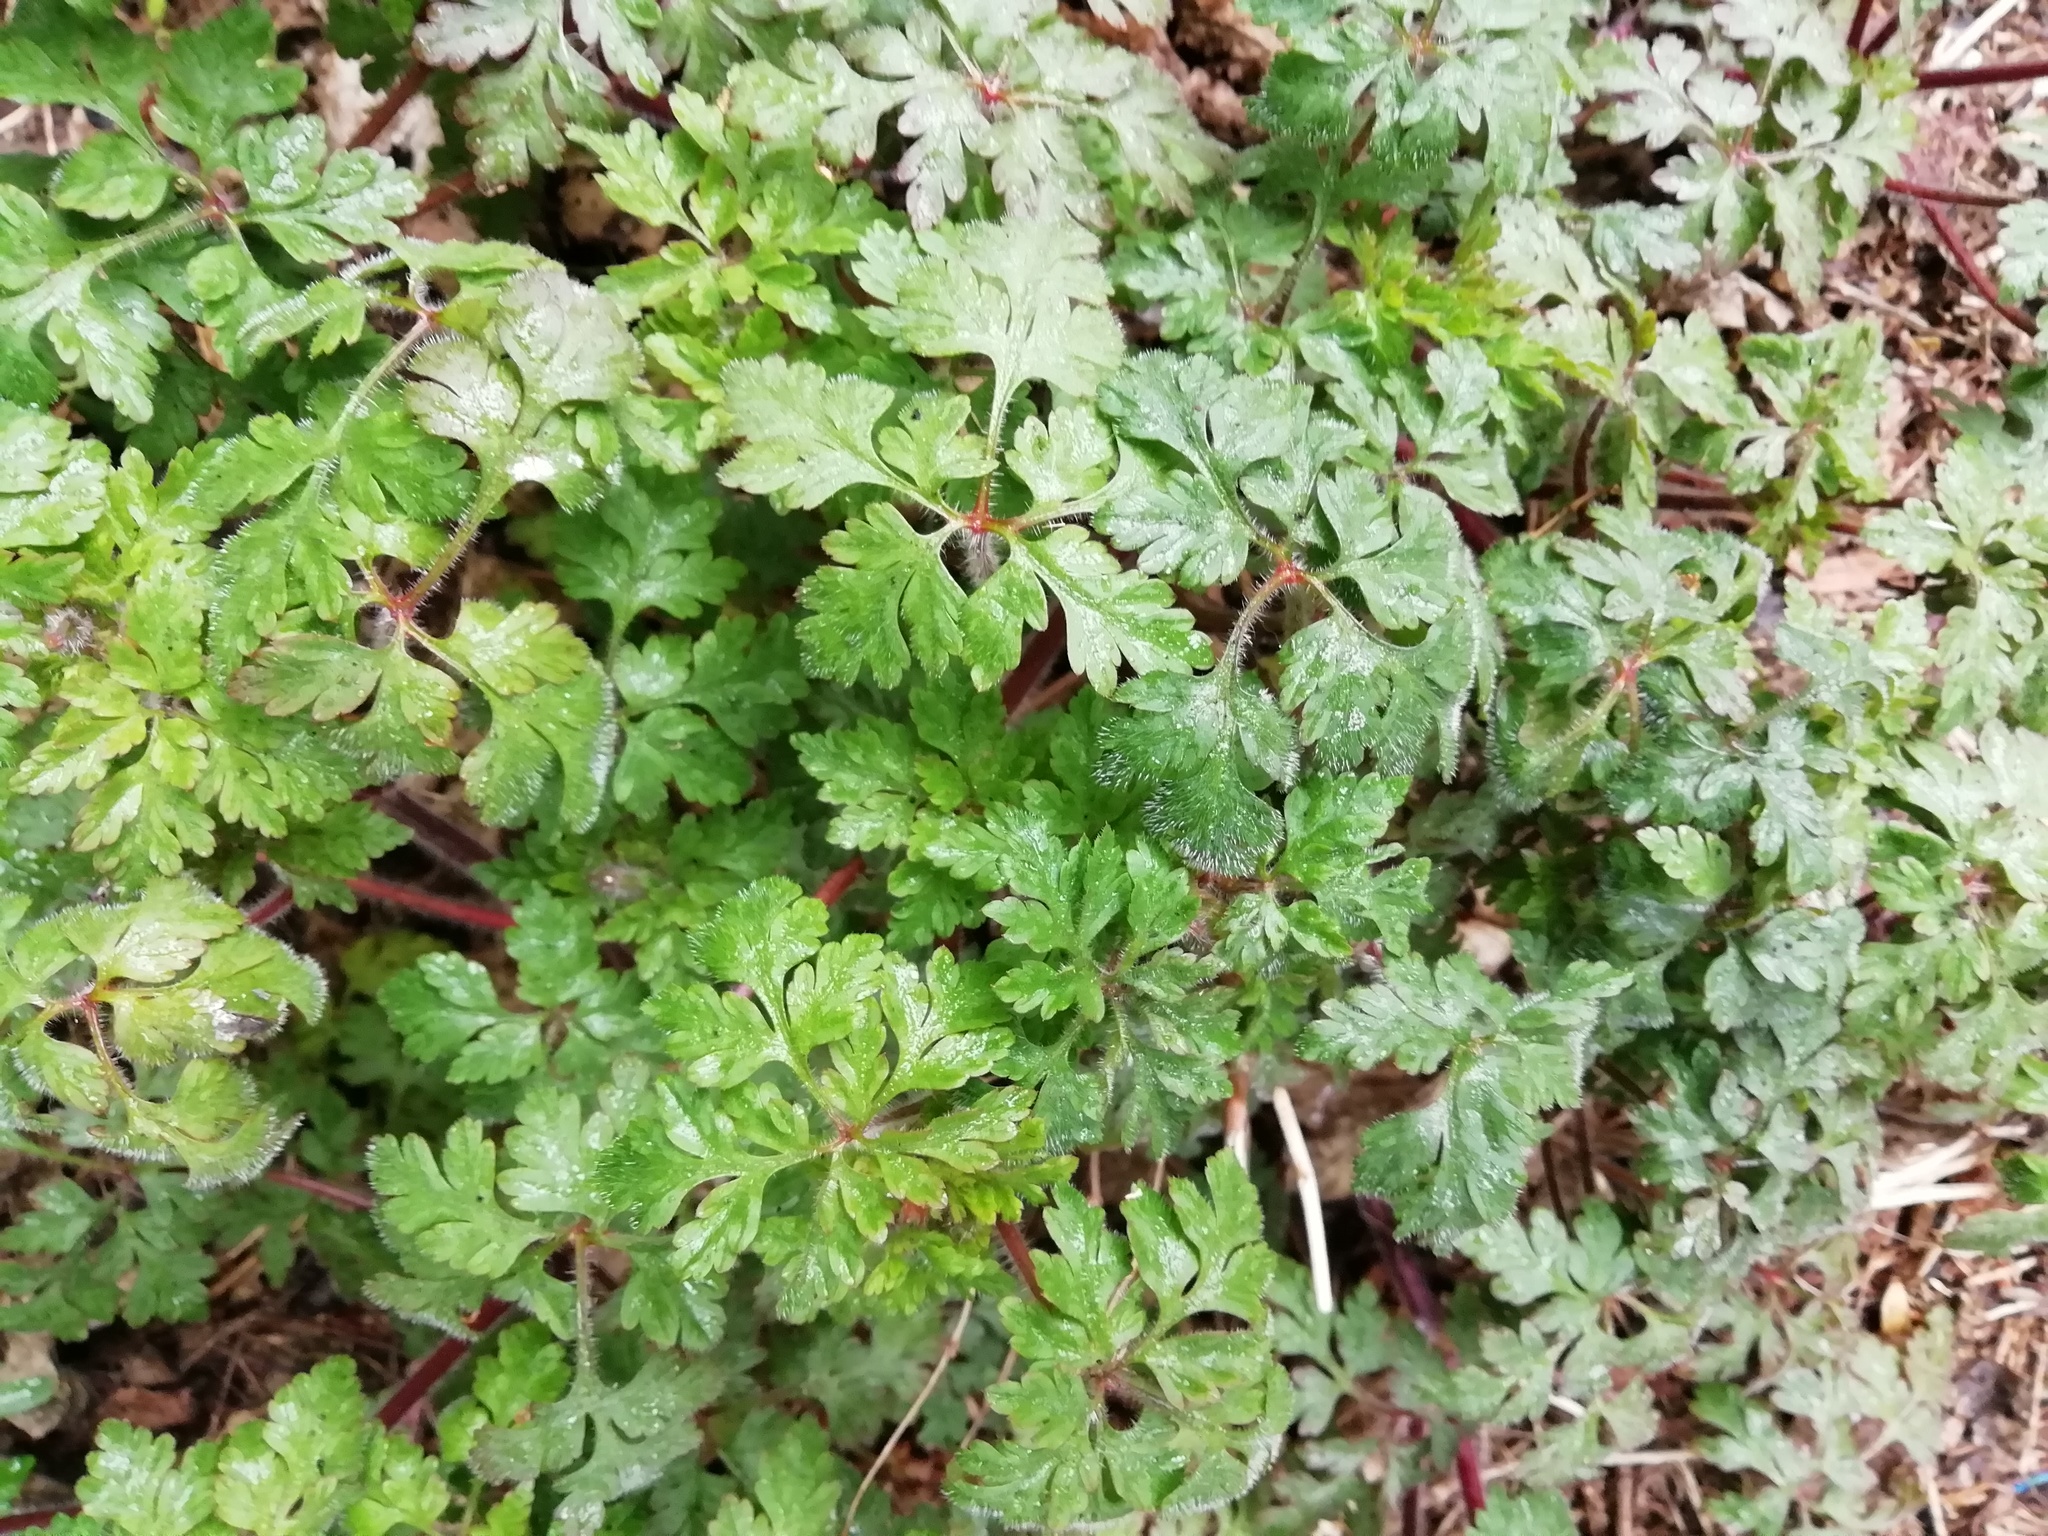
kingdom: Plantae
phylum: Tracheophyta
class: Magnoliopsida
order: Geraniales
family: Geraniaceae
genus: Geranium
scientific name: Geranium robertianum
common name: Herb-robert
